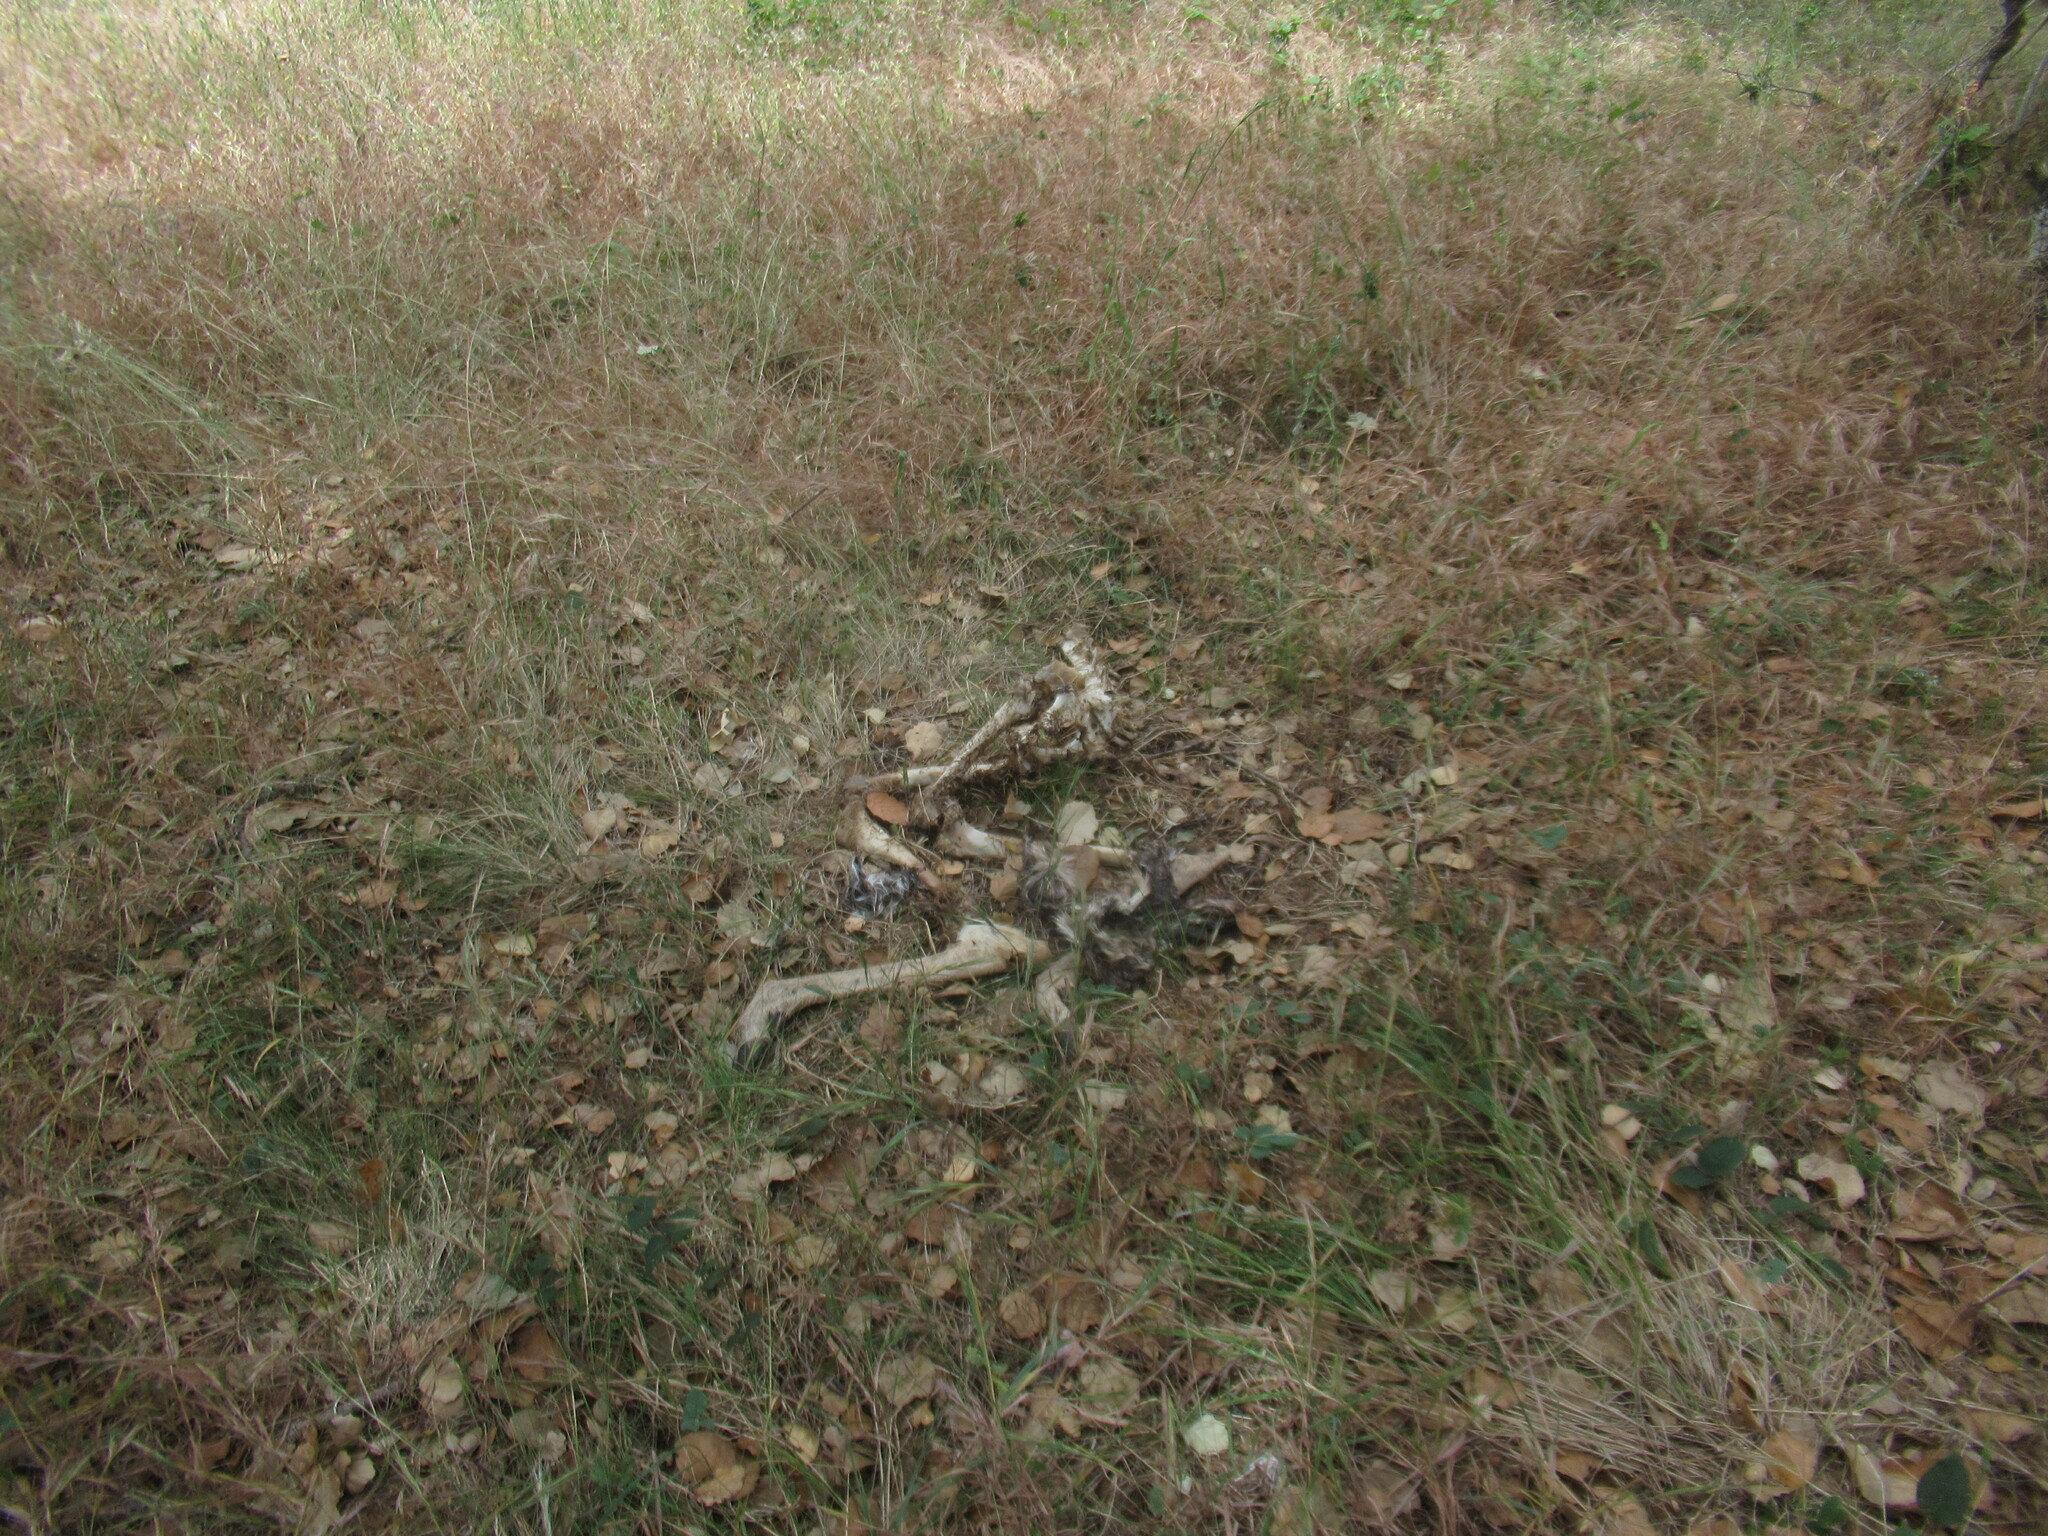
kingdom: Animalia
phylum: Chordata
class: Mammalia
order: Artiodactyla
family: Cervidae
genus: Odocoileus
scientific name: Odocoileus hemionus
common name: Mule deer
